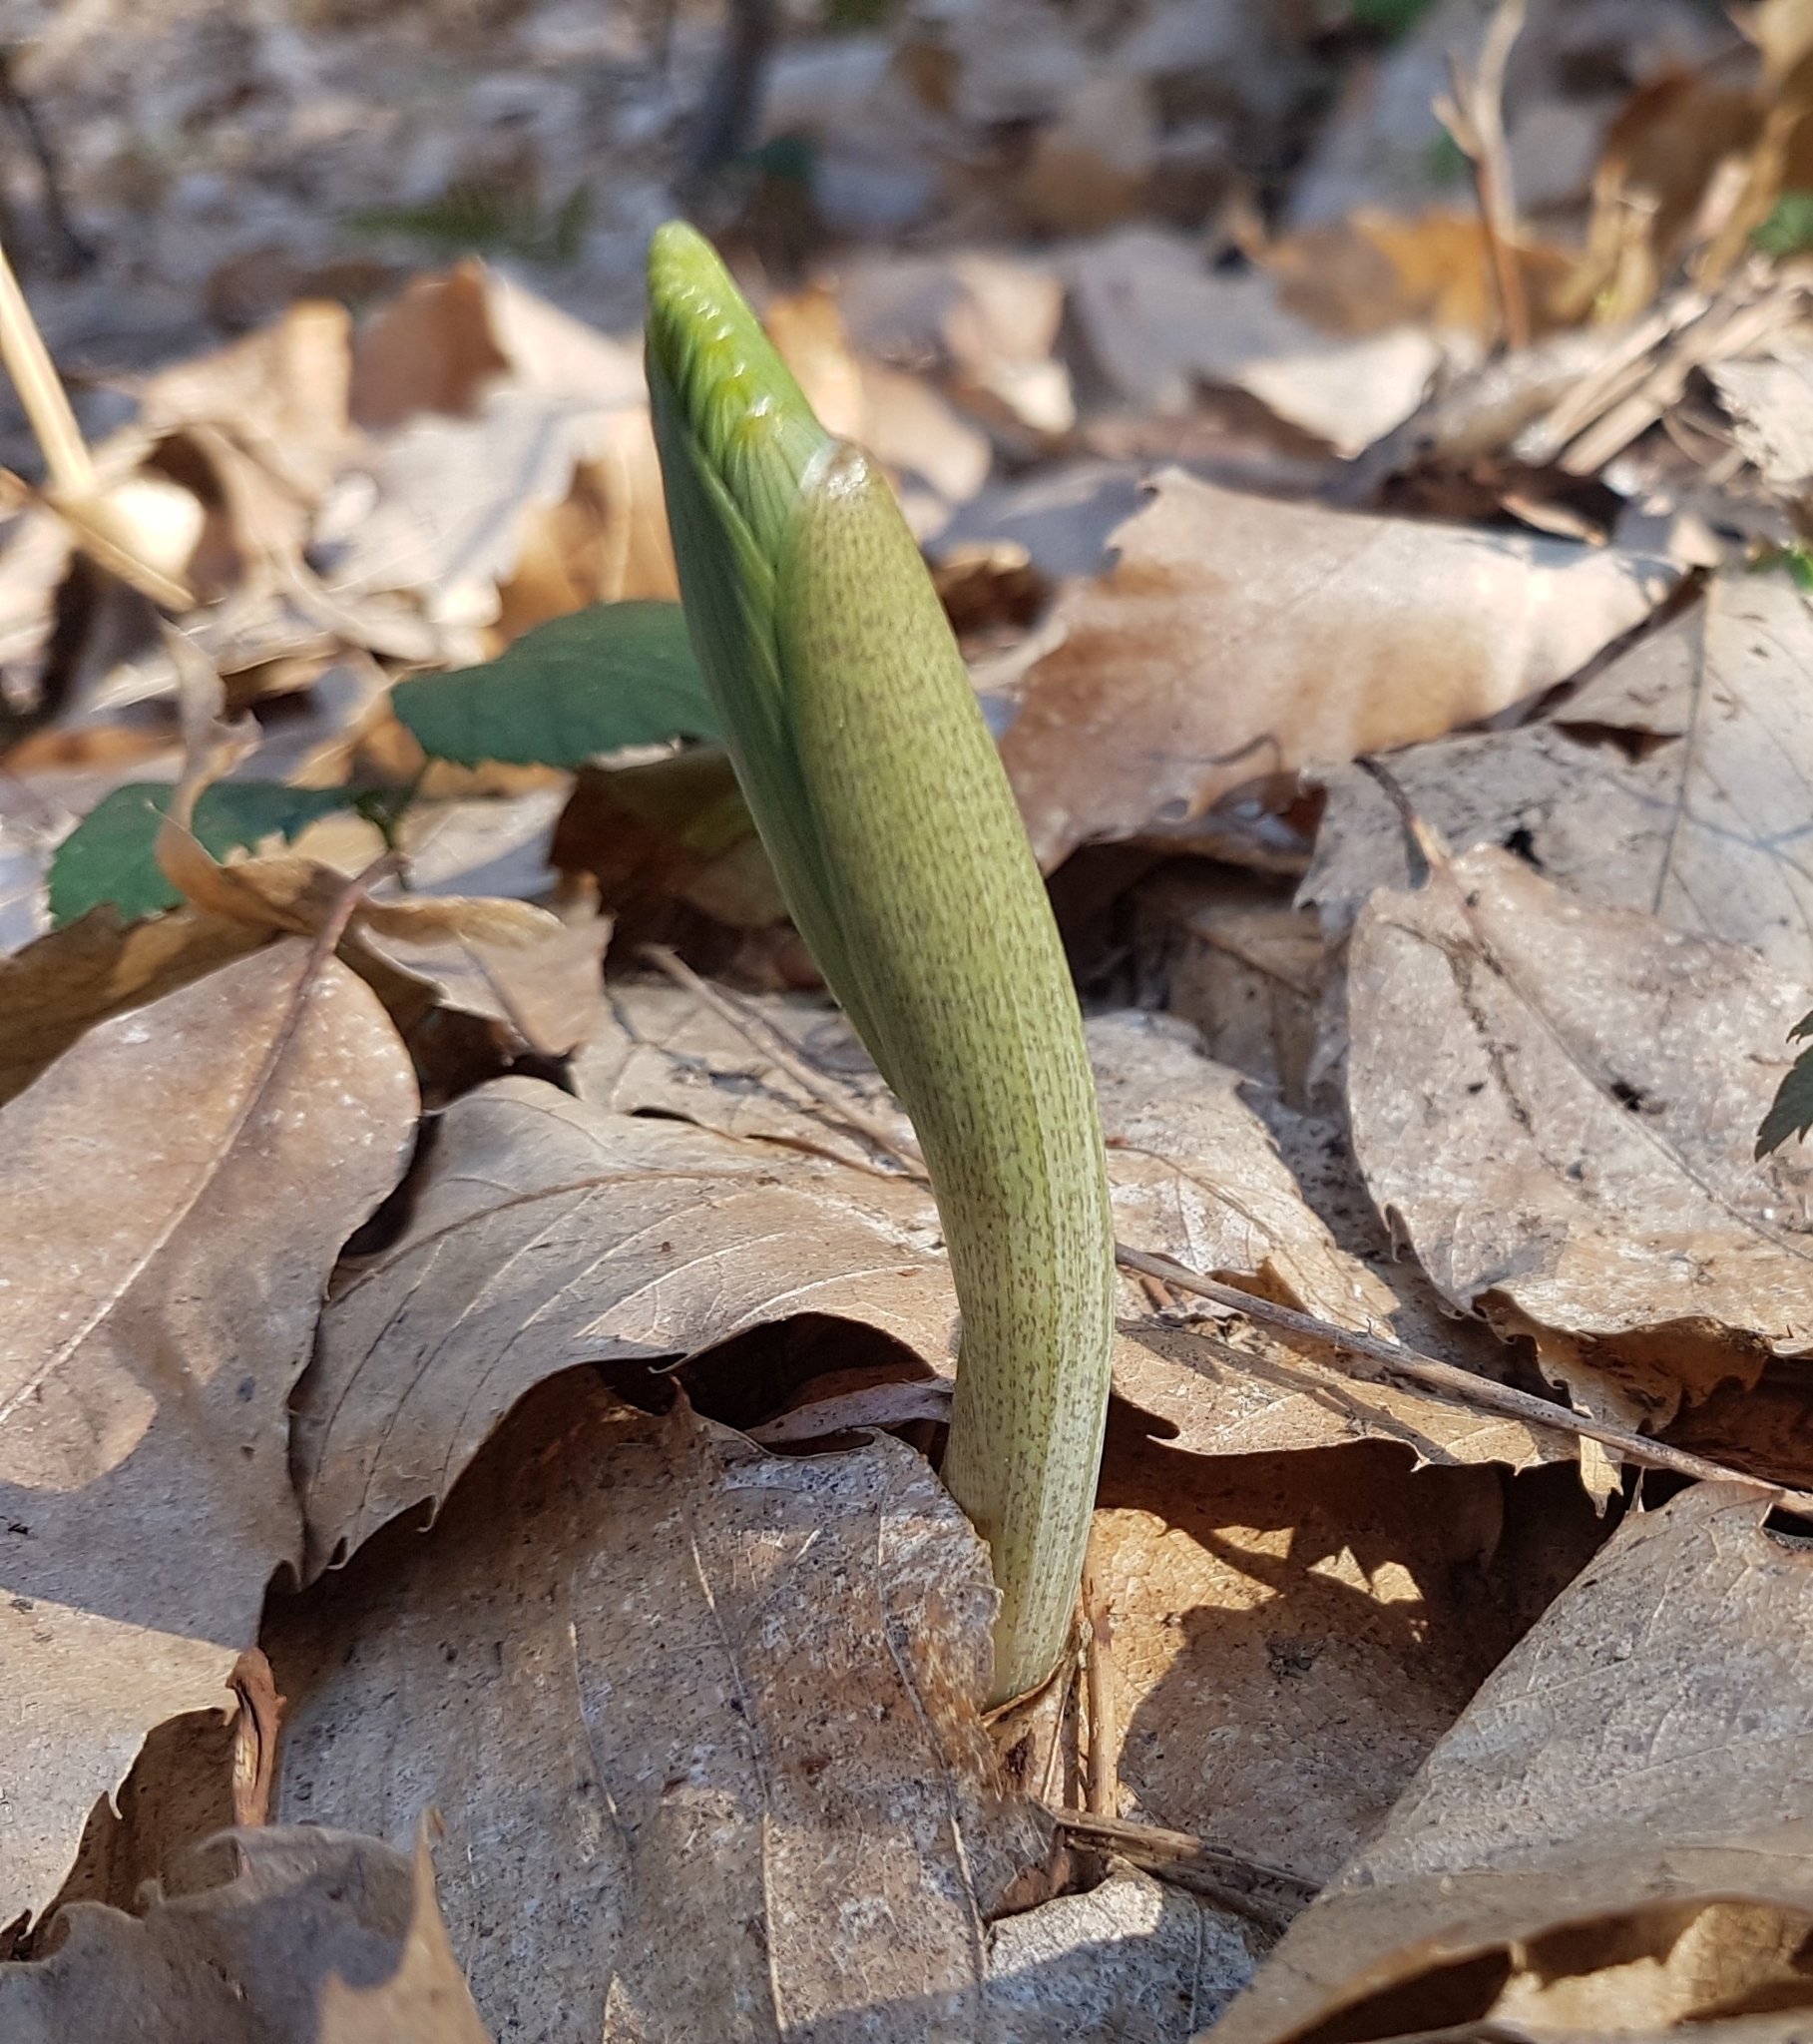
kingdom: Plantae
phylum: Tracheophyta
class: Liliopsida
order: Asparagales
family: Asparagaceae
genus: Polygonatum
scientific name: Polygonatum multiflorum
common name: Solomon's-seal
